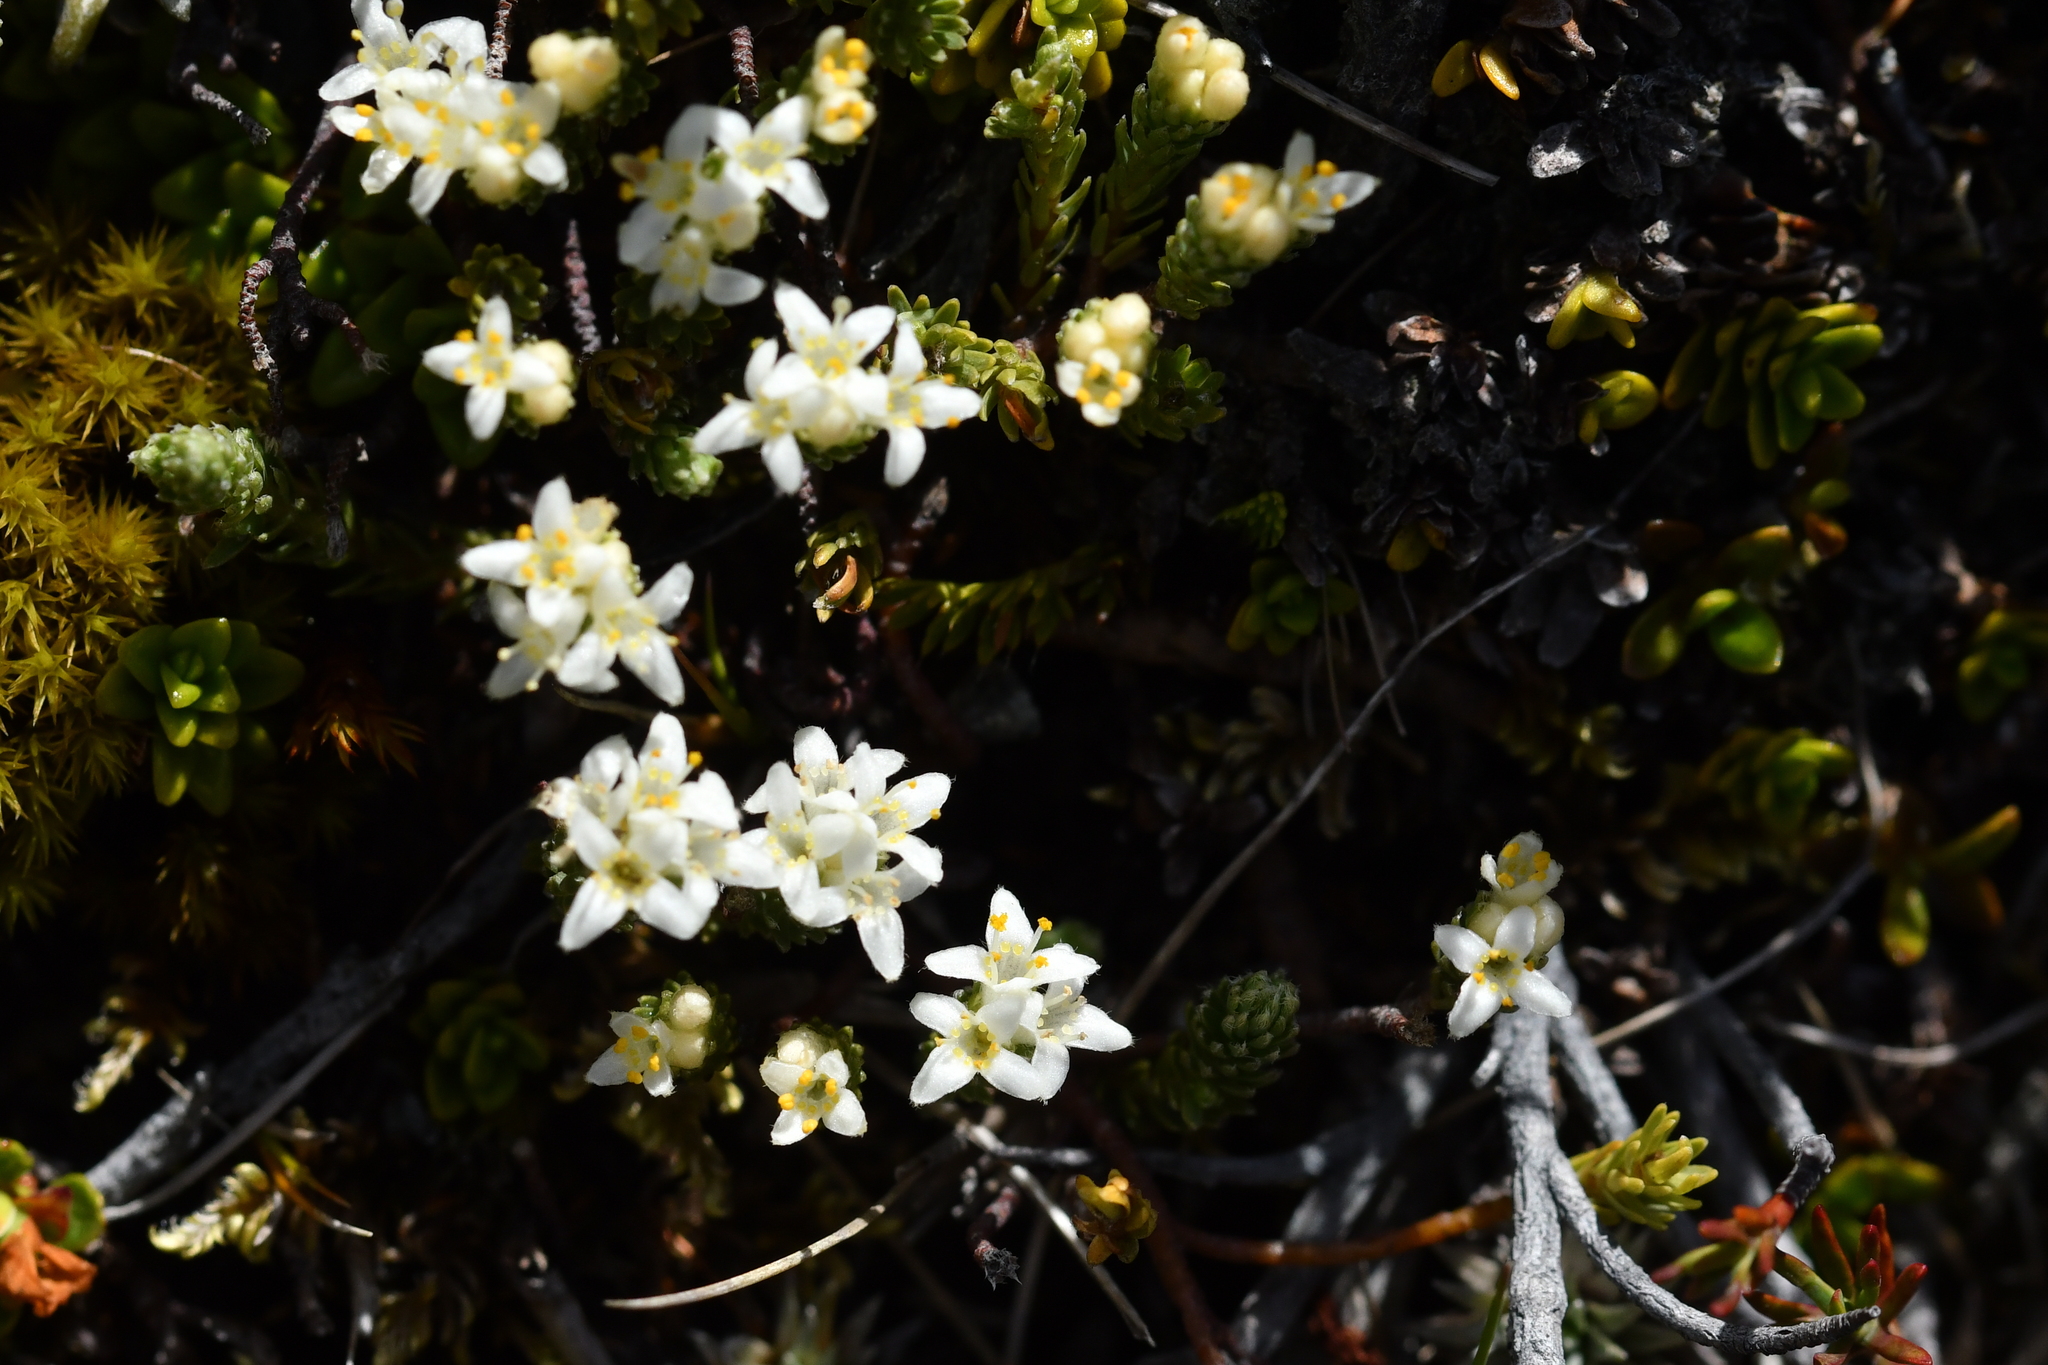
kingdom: Plantae
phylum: Tracheophyta
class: Magnoliopsida
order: Malvales
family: Thymelaeaceae
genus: Kelleria
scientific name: Kelleria dieffenbachii
